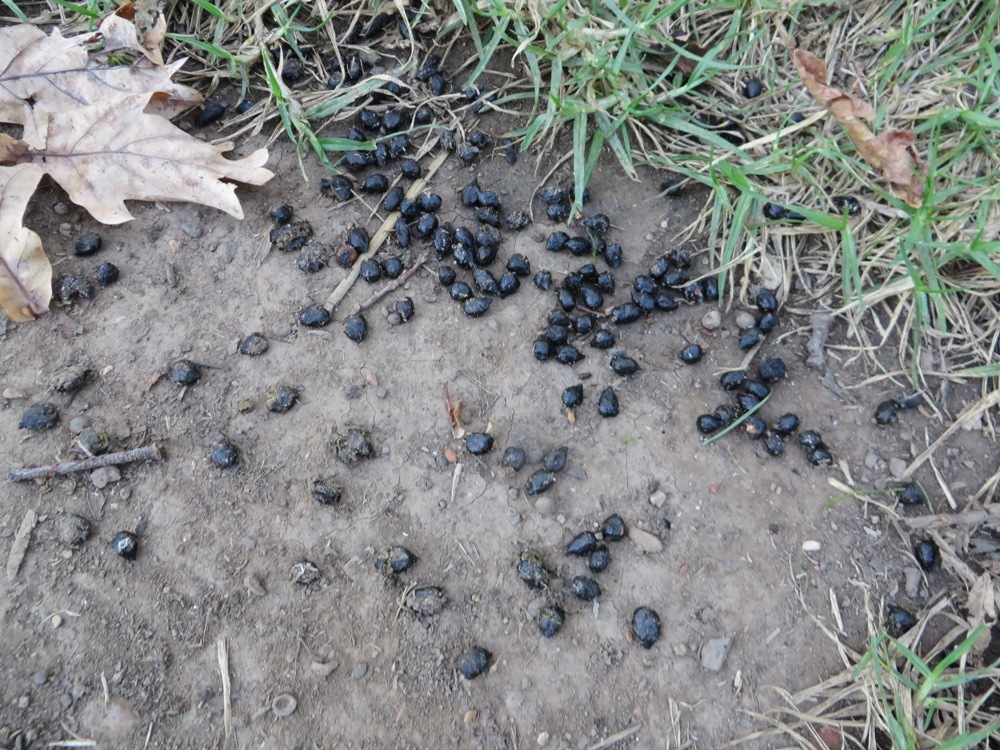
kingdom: Animalia
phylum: Chordata
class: Mammalia
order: Artiodactyla
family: Bovidae
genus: Sylvicapra
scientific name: Sylvicapra grimmia
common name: Bush duiker
